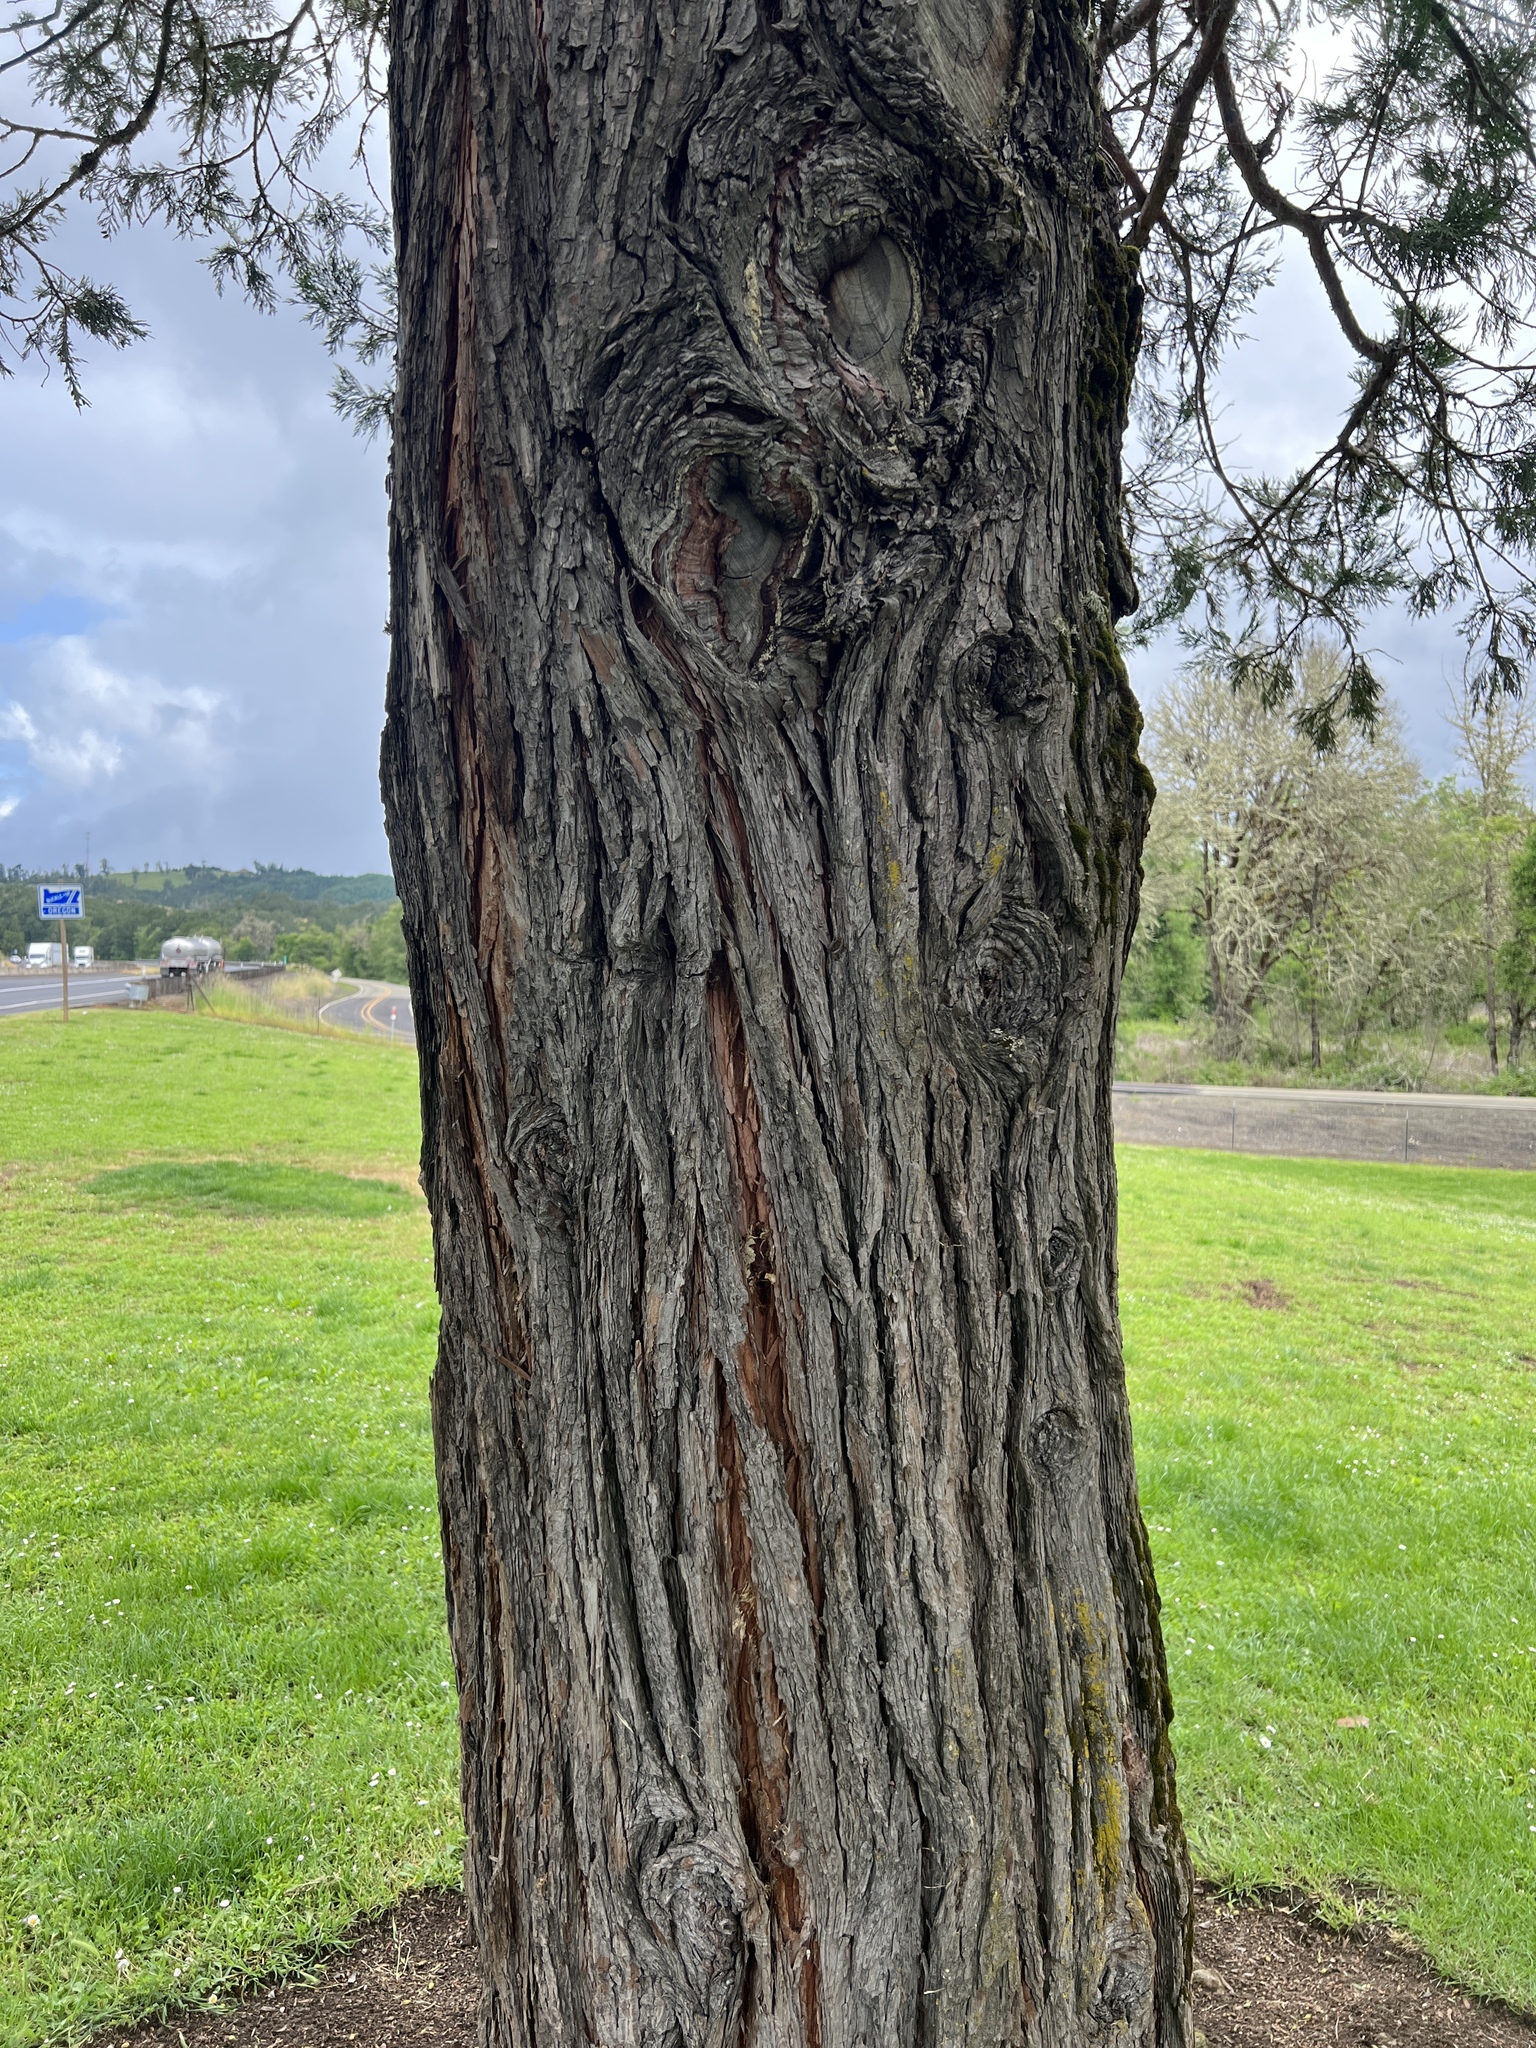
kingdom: Plantae
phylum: Tracheophyta
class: Pinopsida
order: Pinales
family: Cupressaceae
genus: Calocedrus
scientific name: Calocedrus decurrens
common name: Californian incense-cedar
